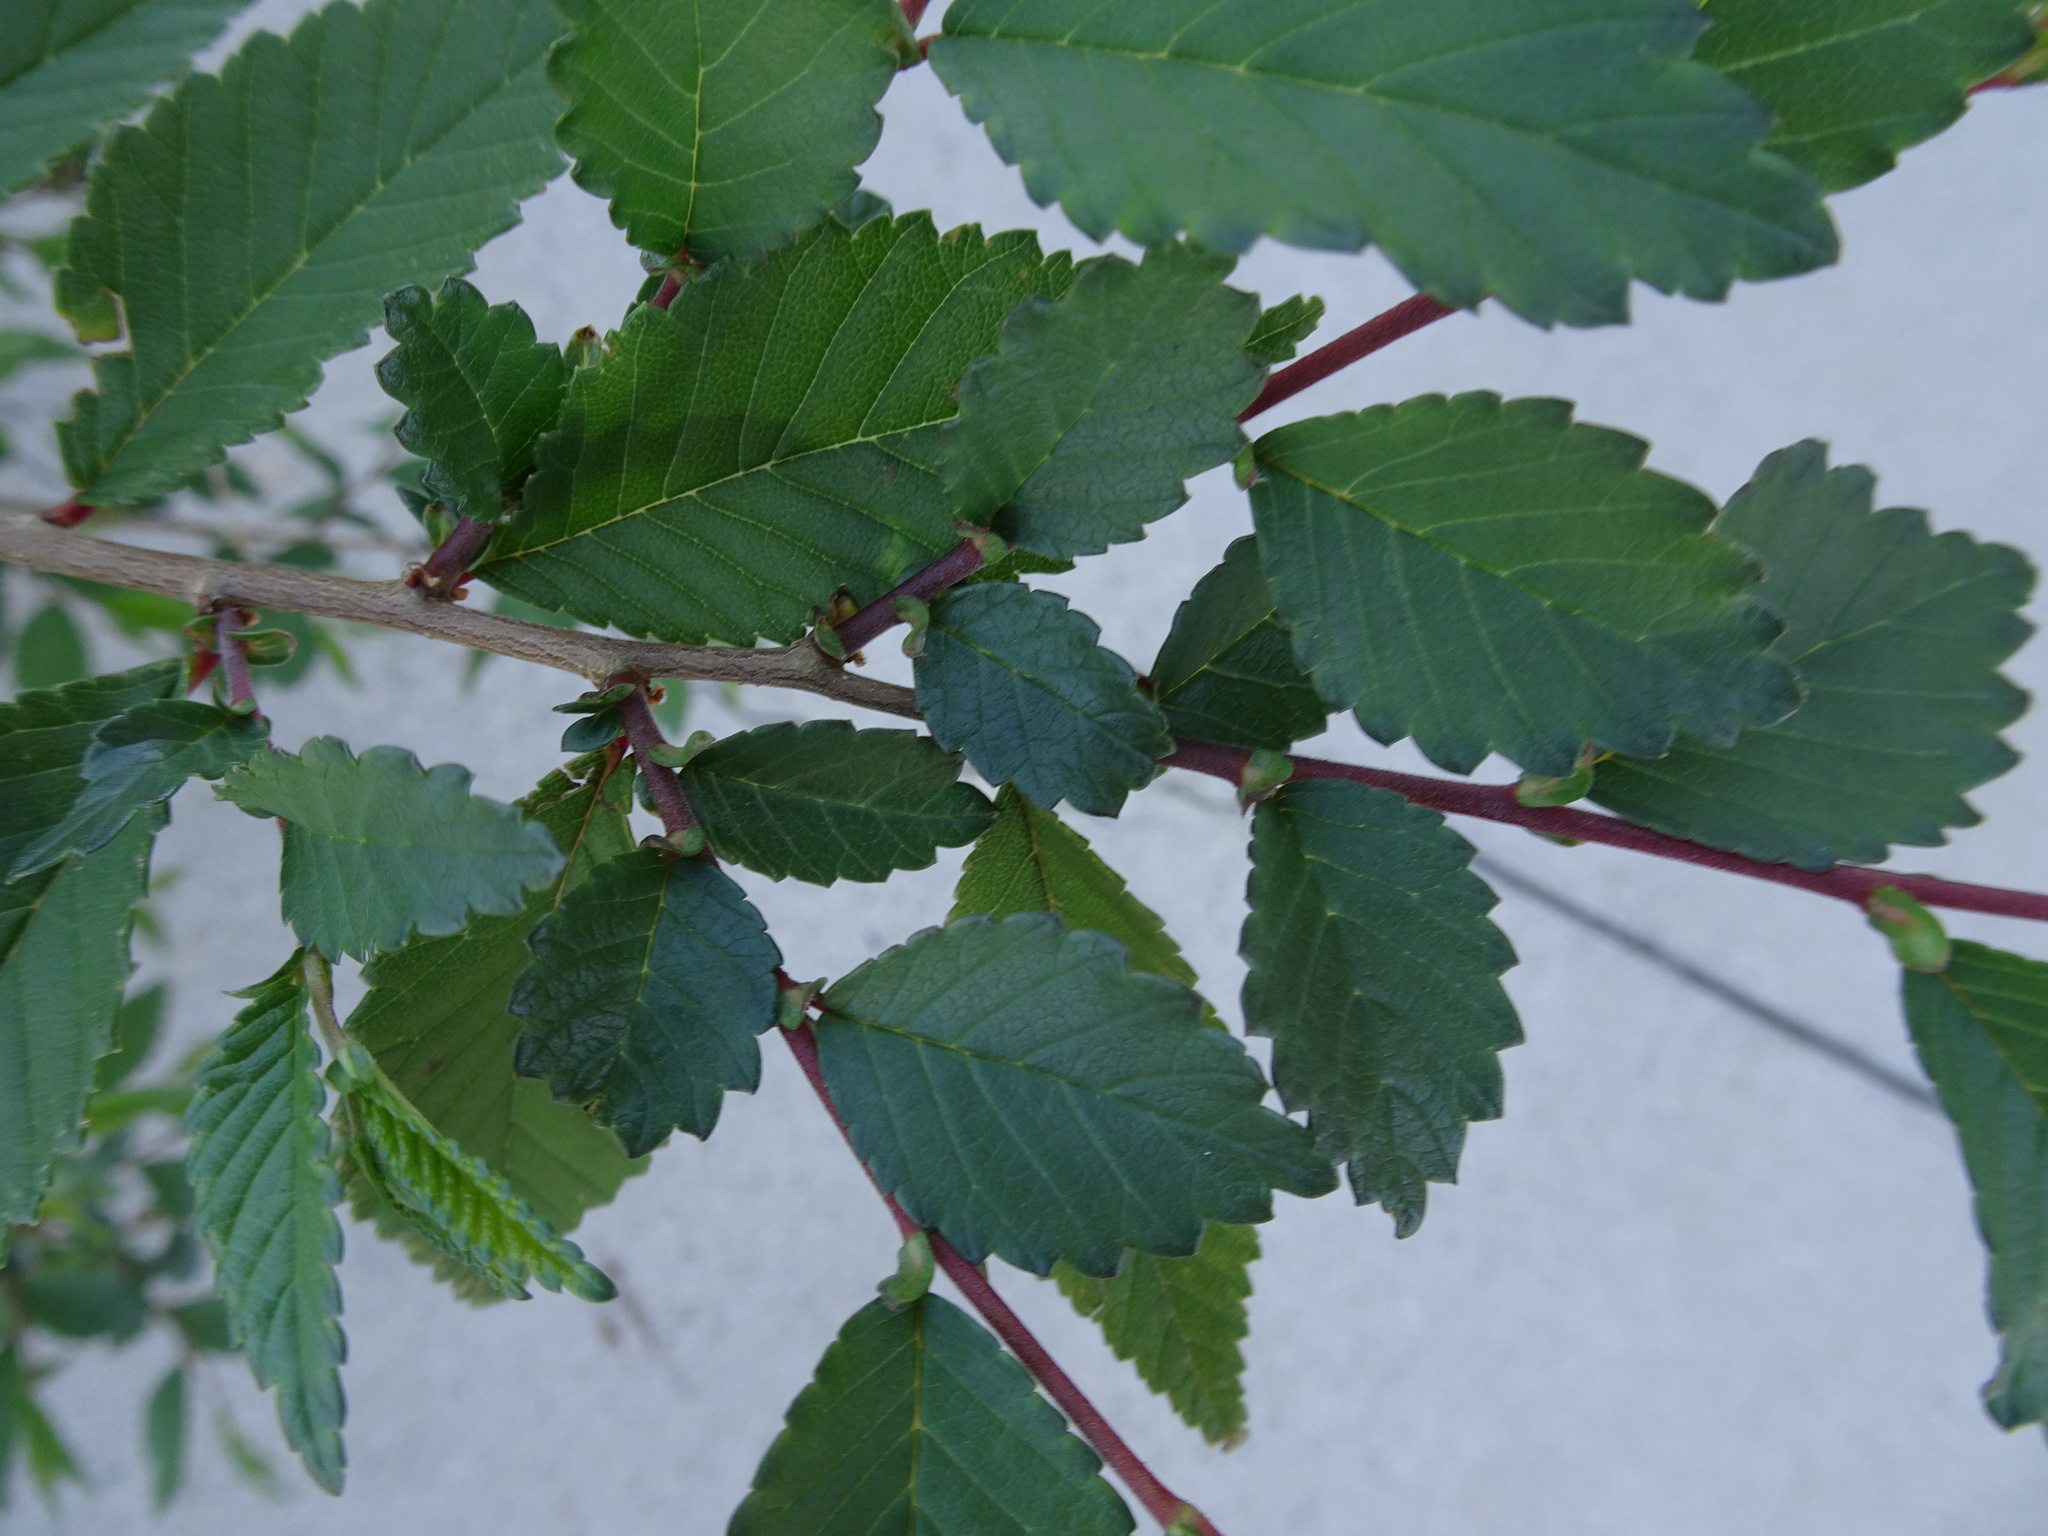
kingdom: Plantae
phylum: Tracheophyta
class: Magnoliopsida
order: Rosales
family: Ulmaceae
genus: Ulmus
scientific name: Ulmus pumila
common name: Siberian elm
